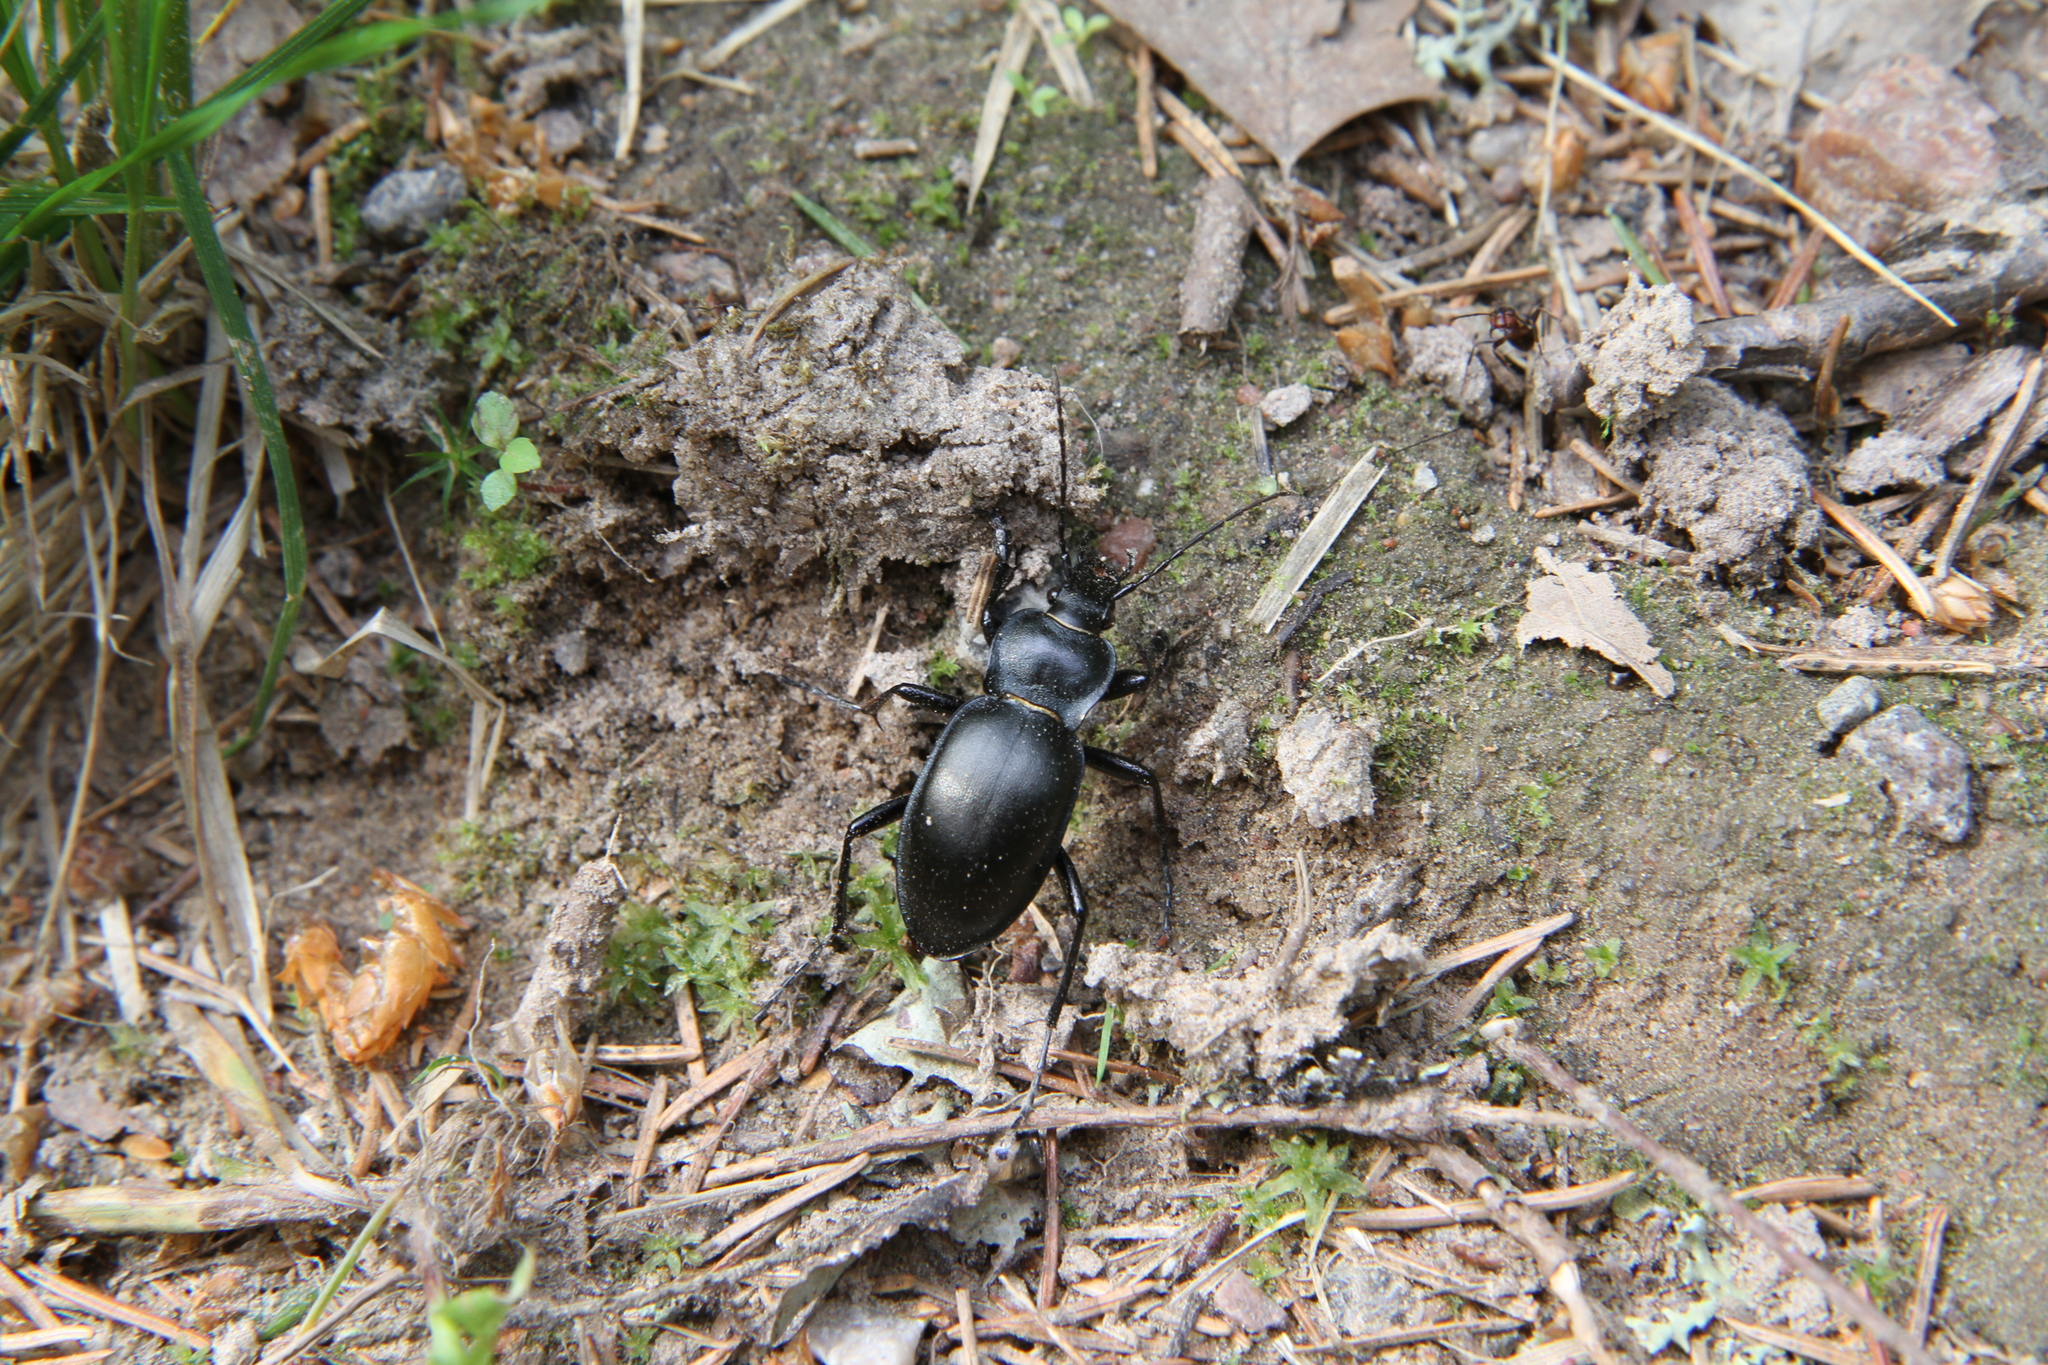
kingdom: Animalia
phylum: Arthropoda
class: Insecta
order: Coleoptera
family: Carabidae
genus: Carabus
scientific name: Carabus glabratus
